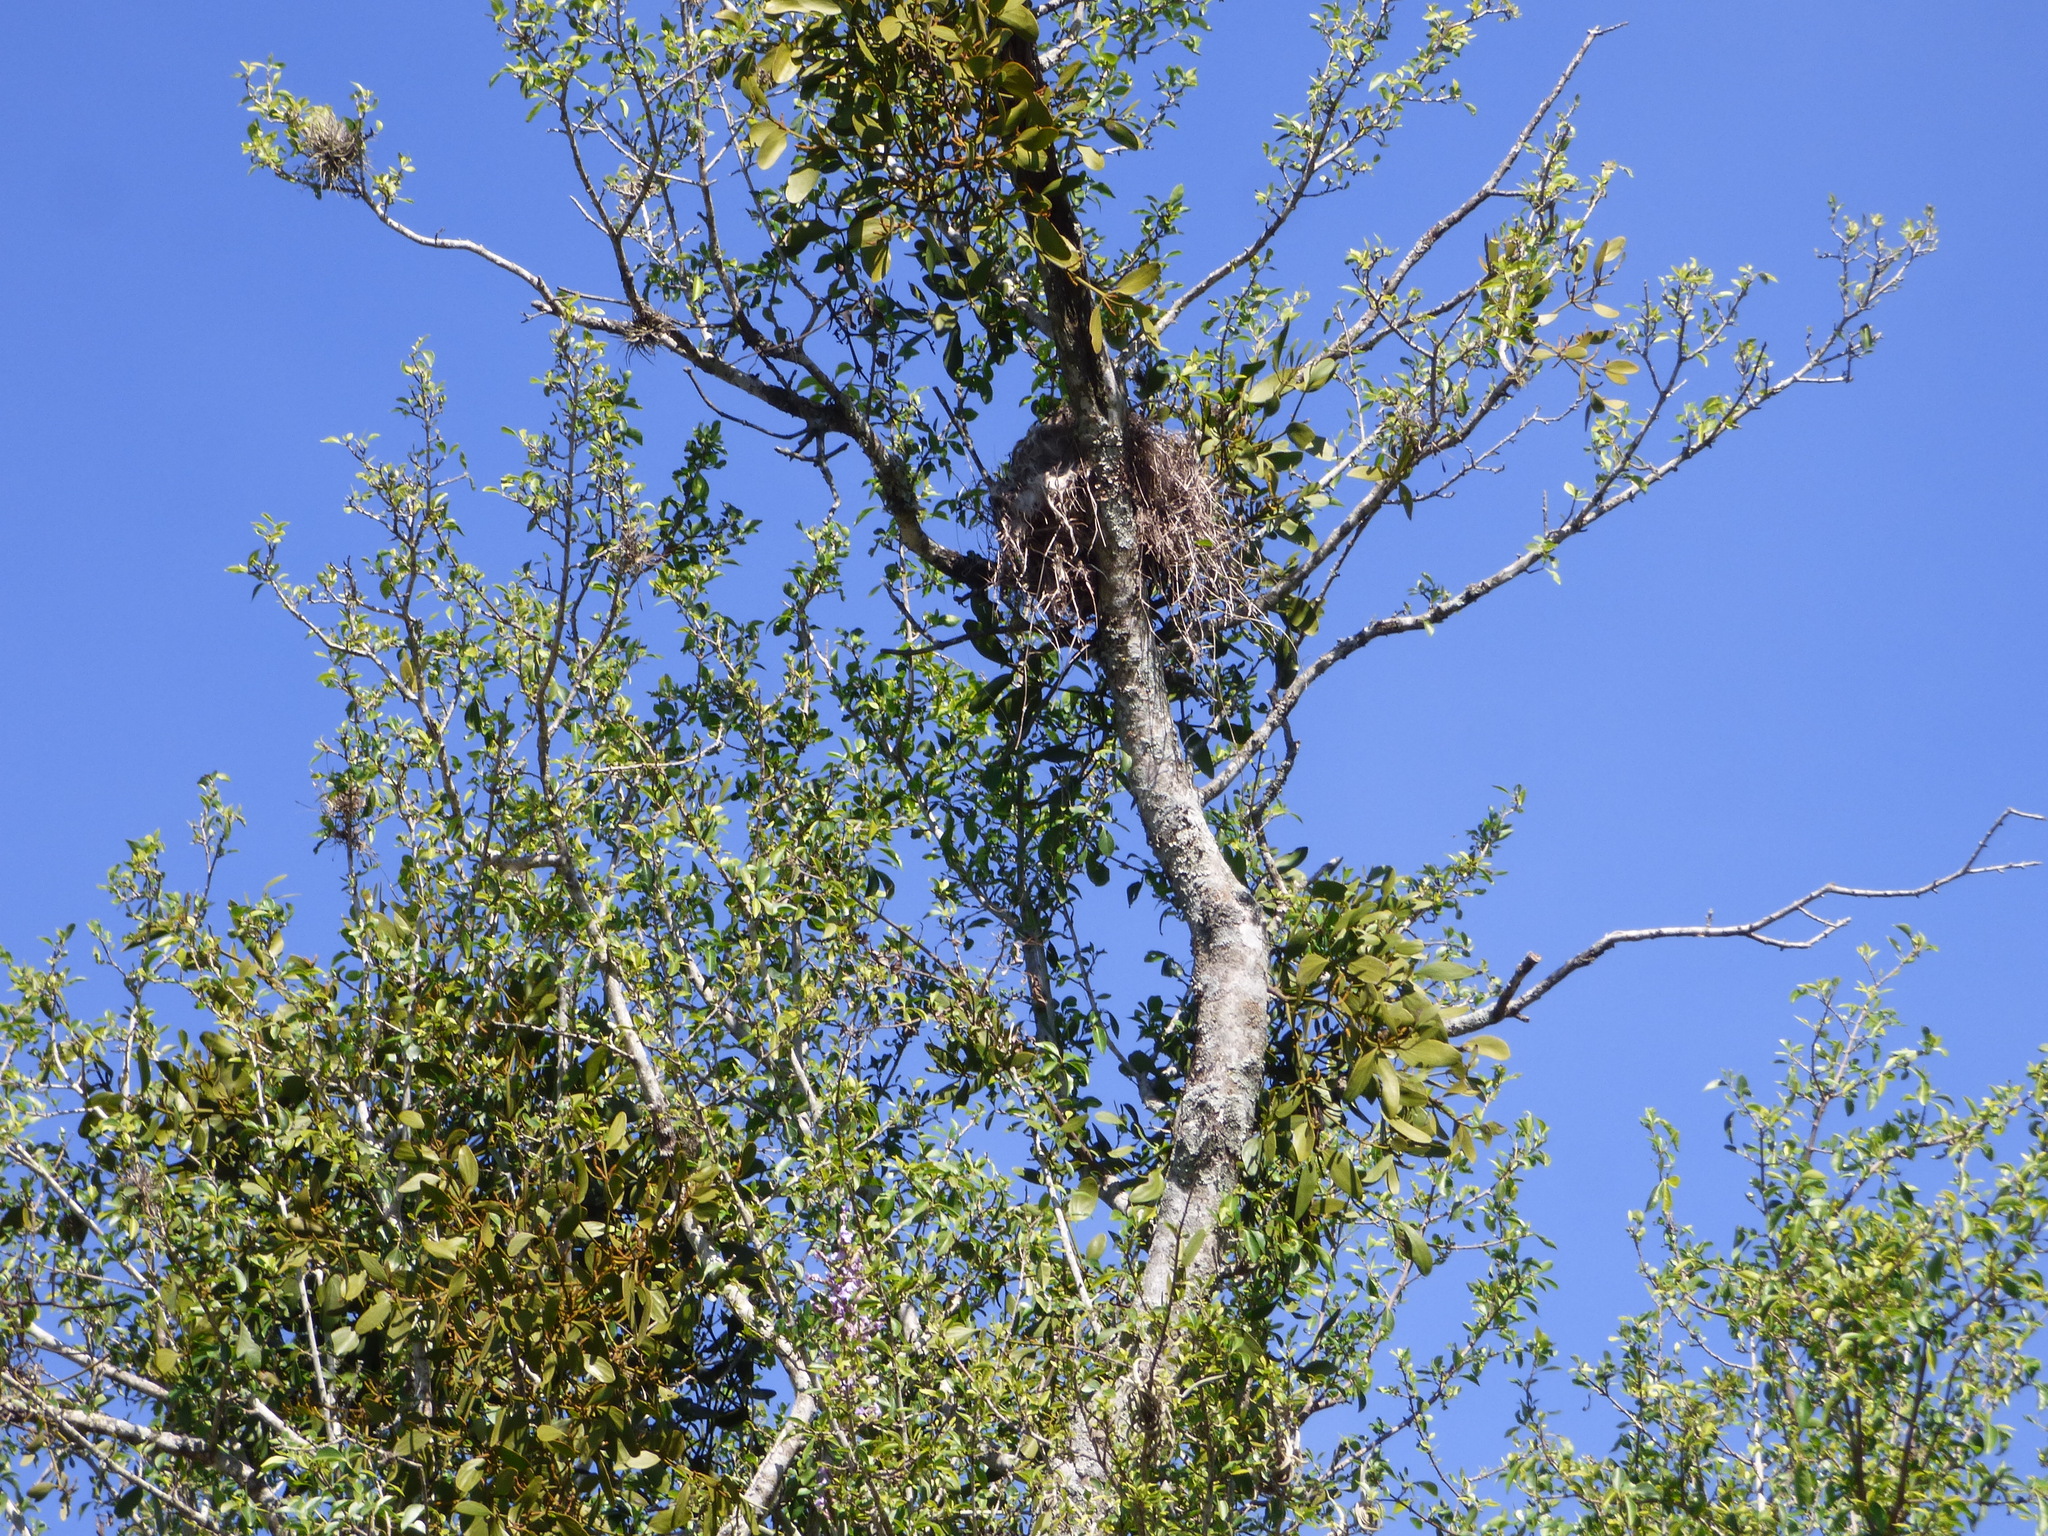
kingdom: Plantae
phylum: Tracheophyta
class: Magnoliopsida
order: Santalales
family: Viscaceae
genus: Phoradendron
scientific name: Phoradendron bathyoryctum
